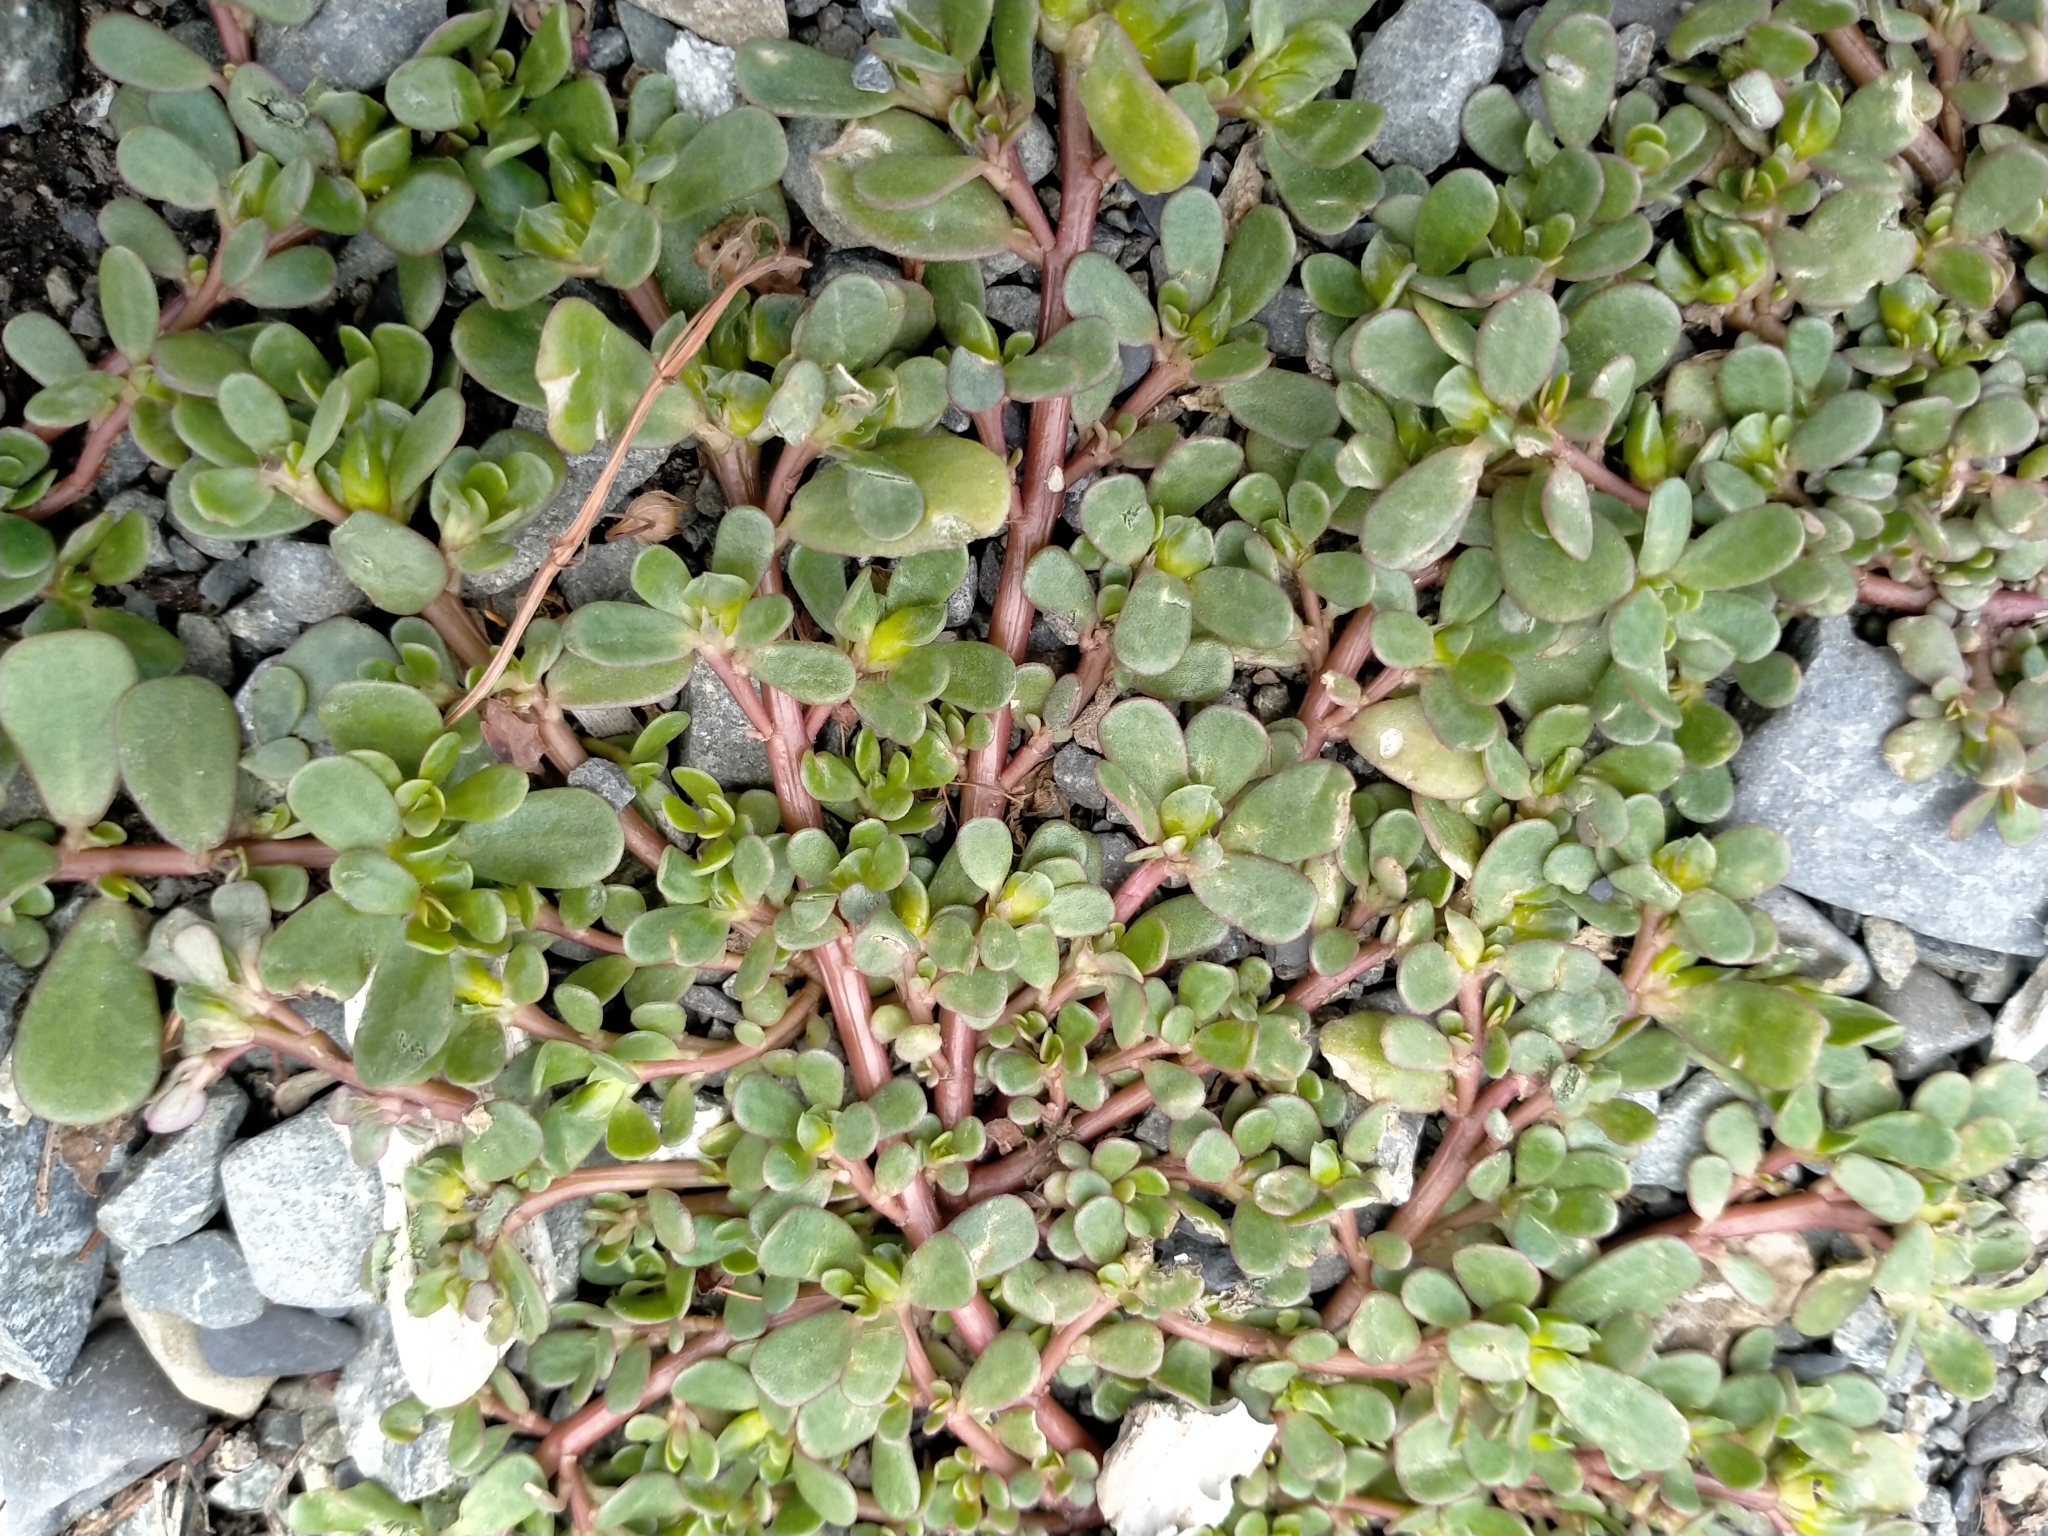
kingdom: Plantae
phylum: Tracheophyta
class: Magnoliopsida
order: Caryophyllales
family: Portulacaceae
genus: Portulaca
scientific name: Portulaca oleracea
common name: Common purslane
